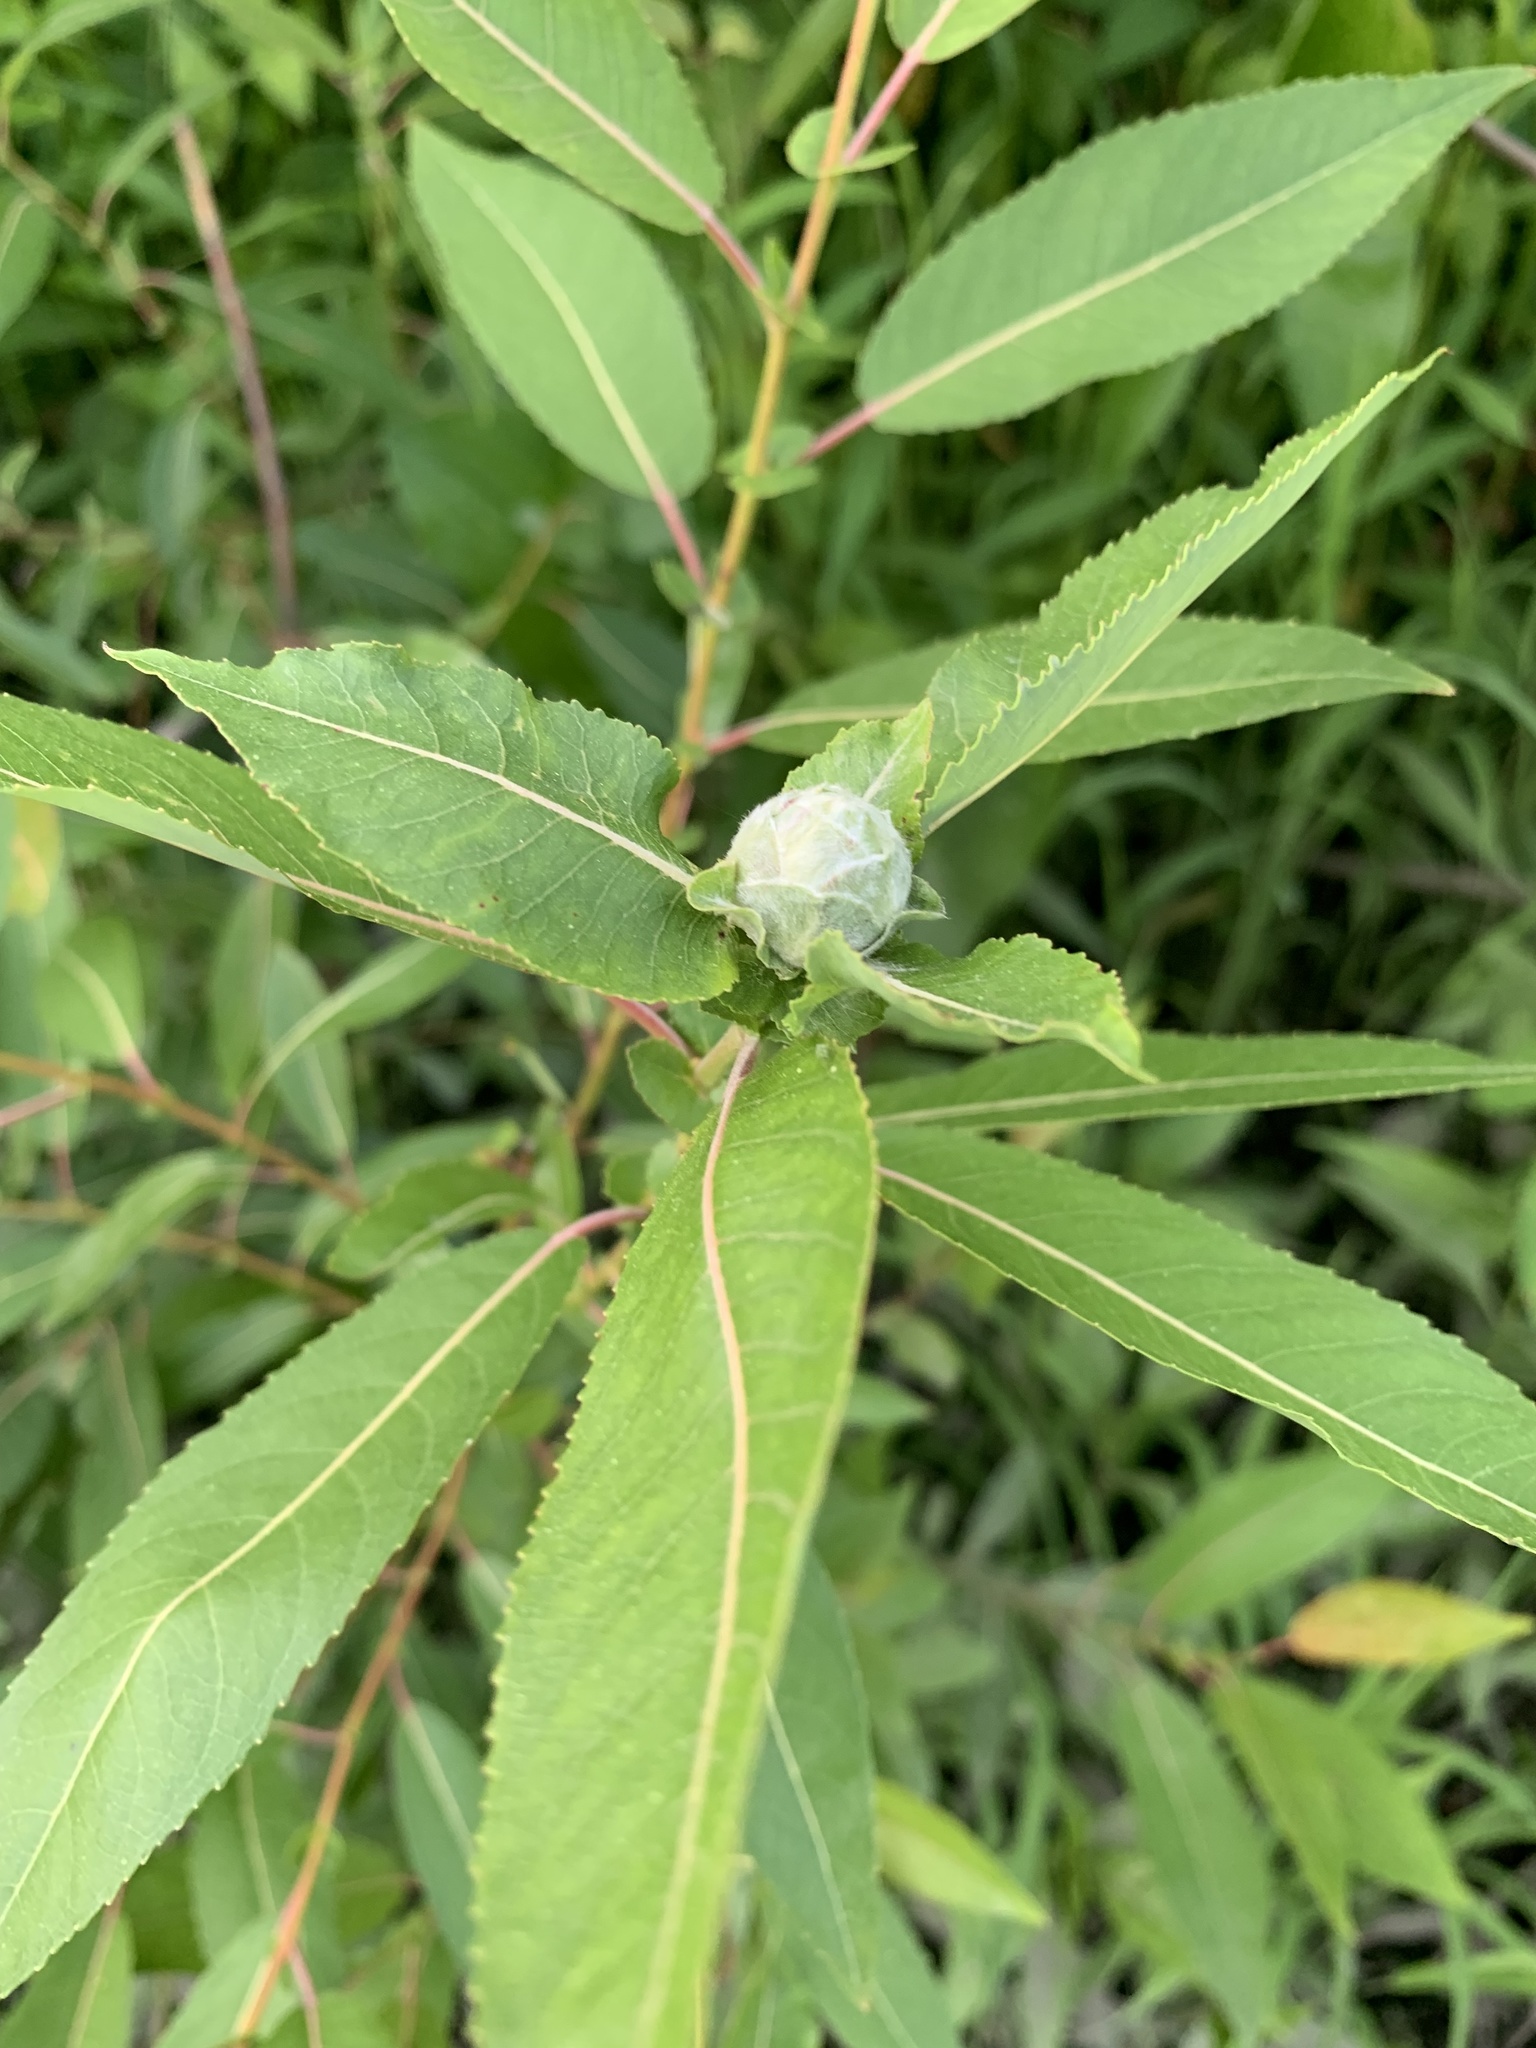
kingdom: Animalia
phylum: Arthropoda
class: Insecta
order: Diptera
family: Cecidomyiidae
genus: Rabdophaga
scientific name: Rabdophaga strobiloides
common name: Willow pinecone gall midge
